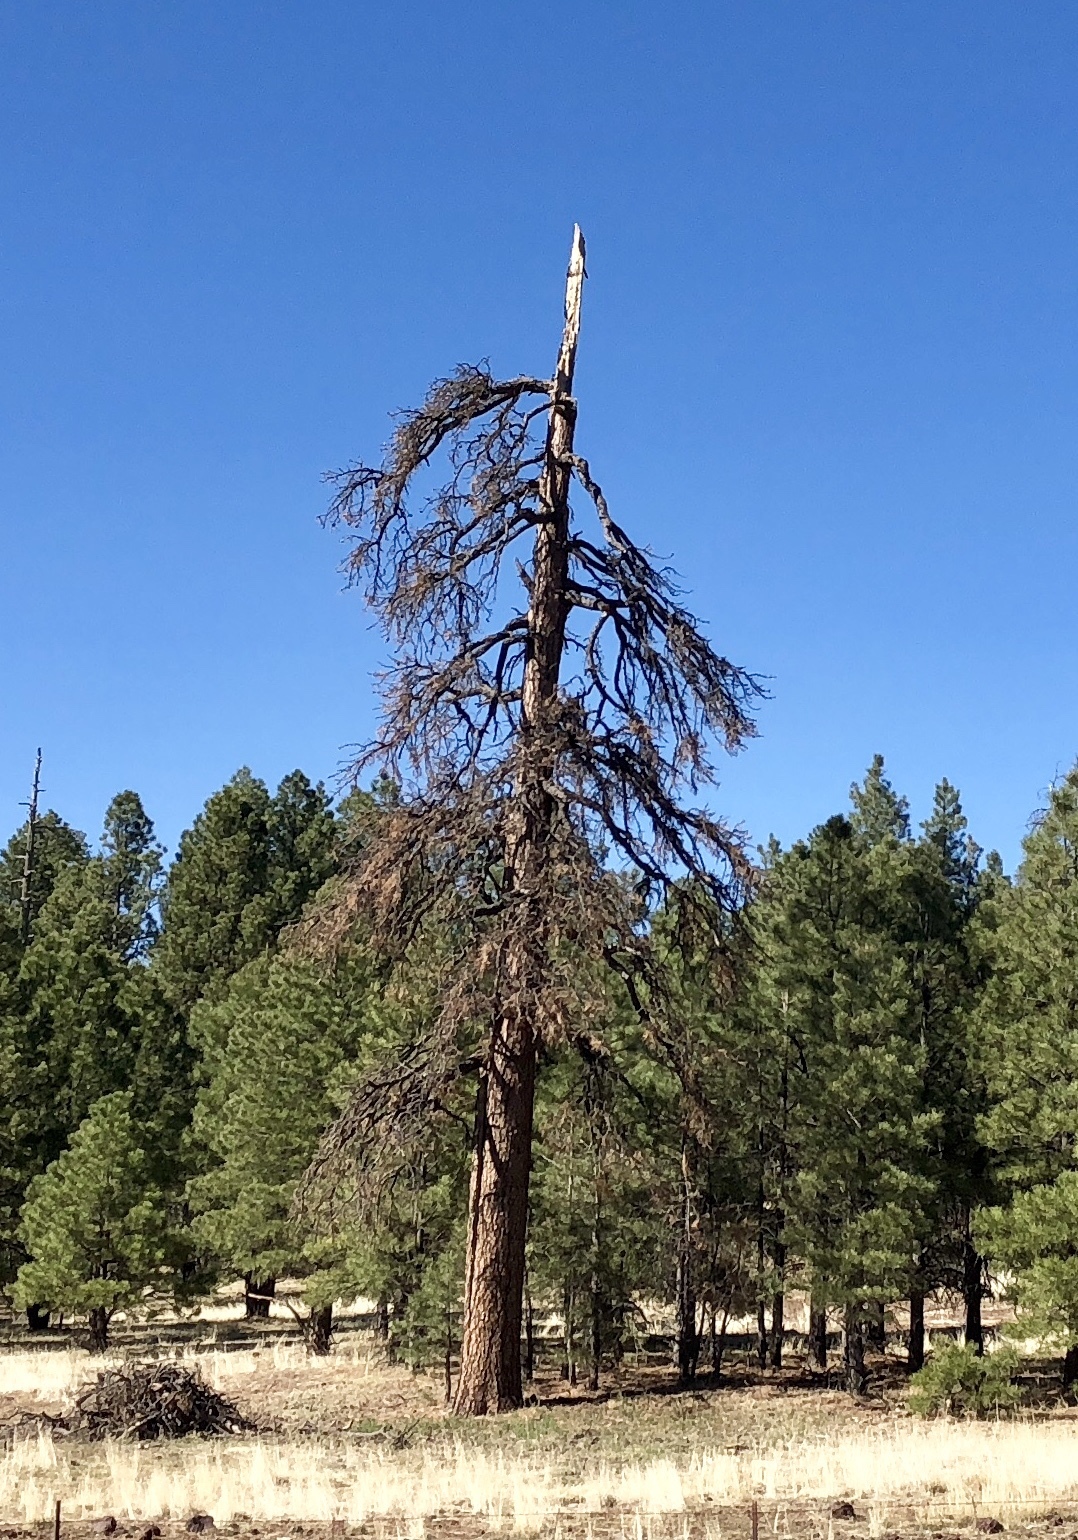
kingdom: Plantae
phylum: Tracheophyta
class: Pinopsida
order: Pinales
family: Pinaceae
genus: Pinus
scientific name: Pinus ponderosa
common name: Western yellow-pine
